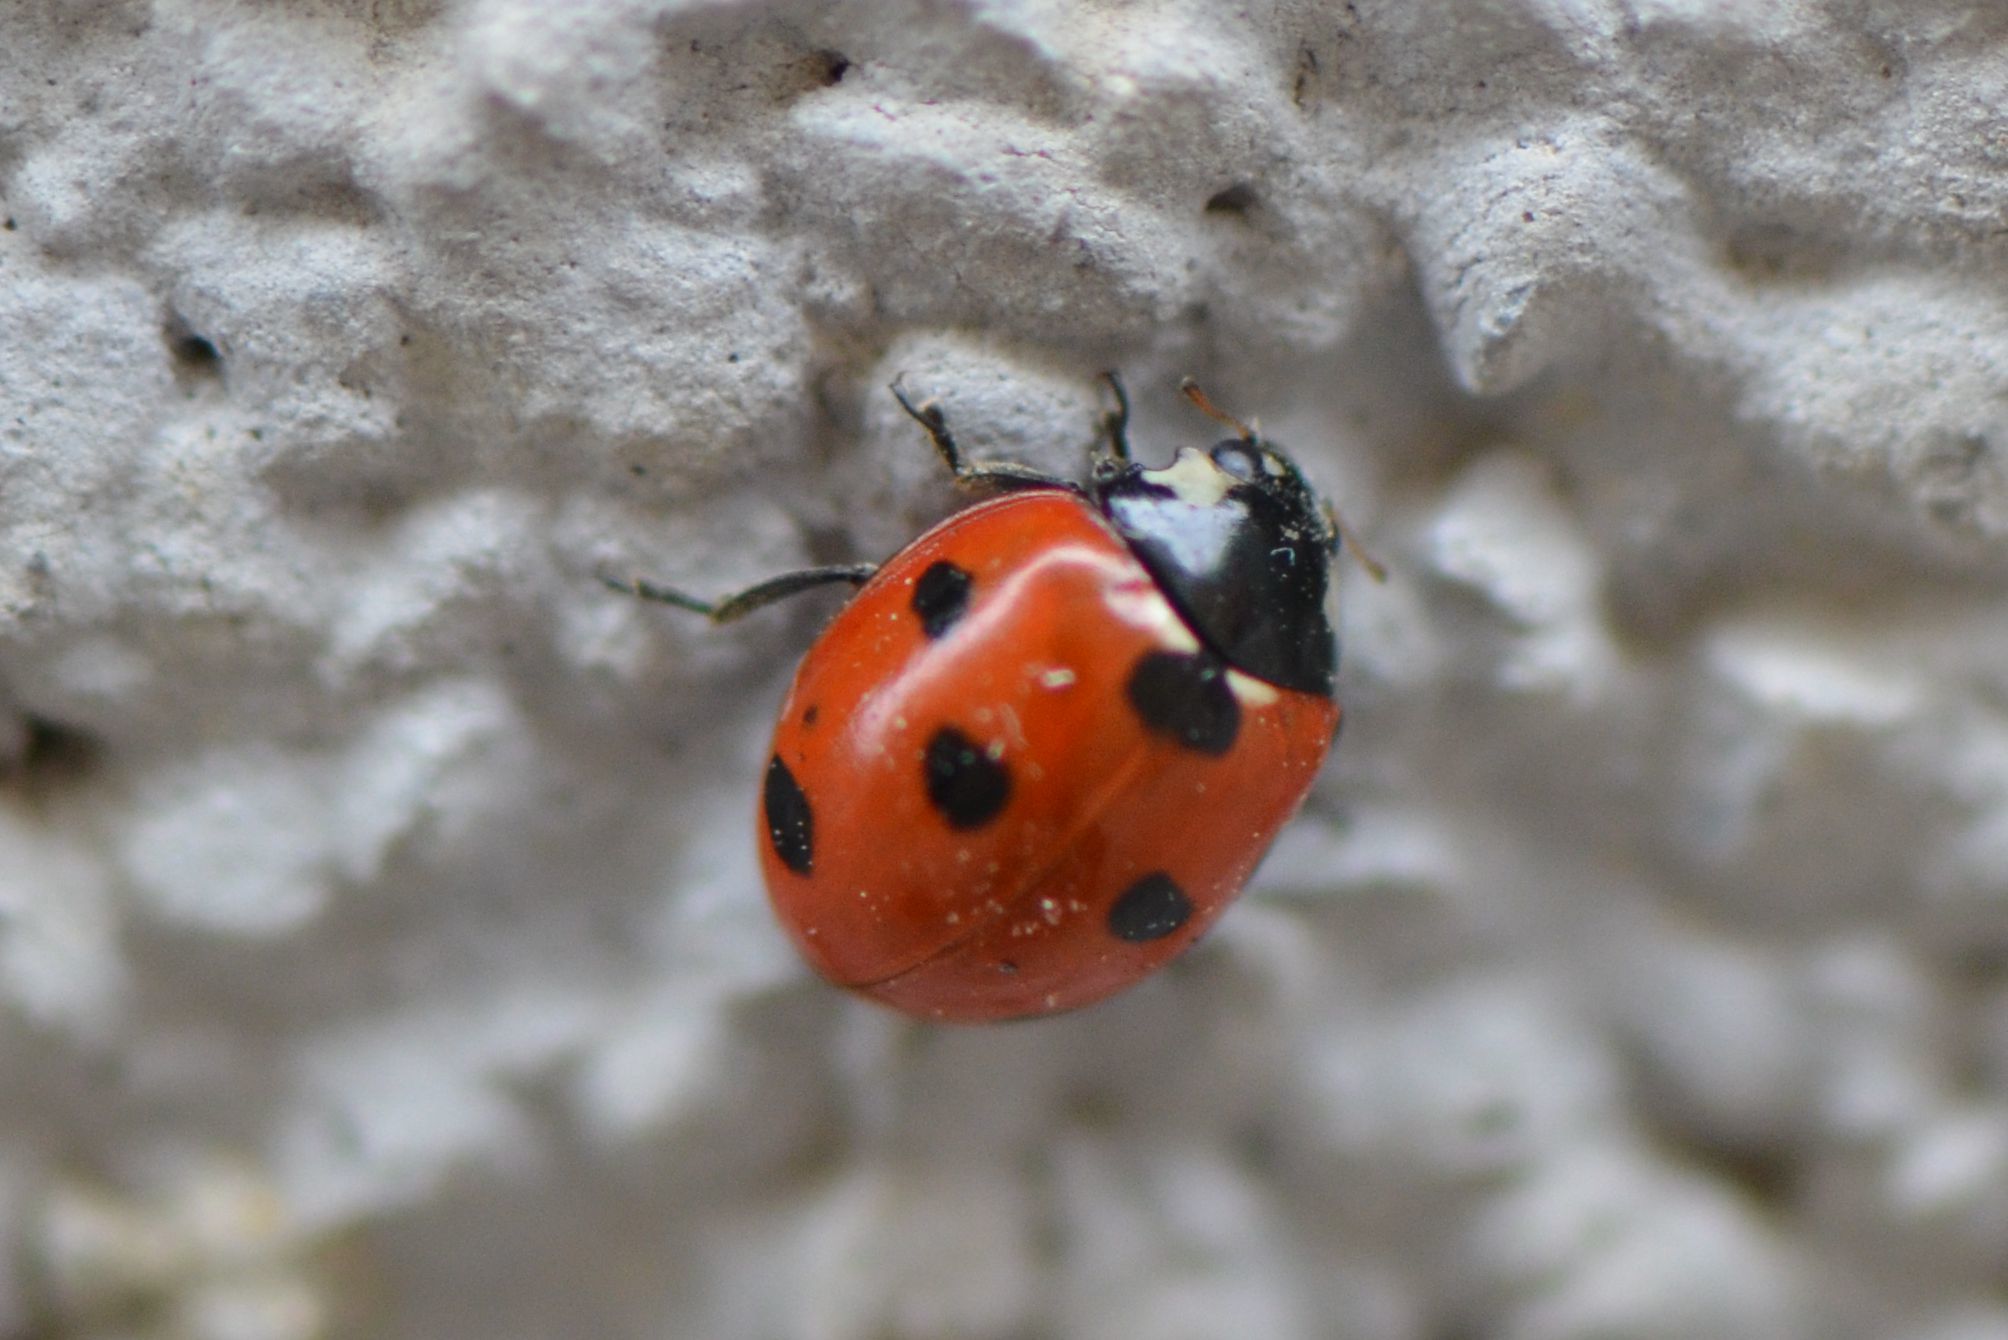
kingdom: Animalia
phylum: Arthropoda
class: Insecta
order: Coleoptera
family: Coccinellidae
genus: Coccinella
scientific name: Coccinella septempunctata
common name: Sevenspotted lady beetle
